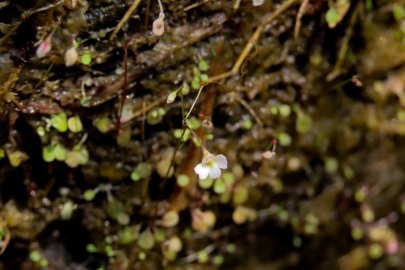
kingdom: Plantae
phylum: Tracheophyta
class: Magnoliopsida
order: Lamiales
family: Lentibulariaceae
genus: Utricularia
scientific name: Utricularia striatula
